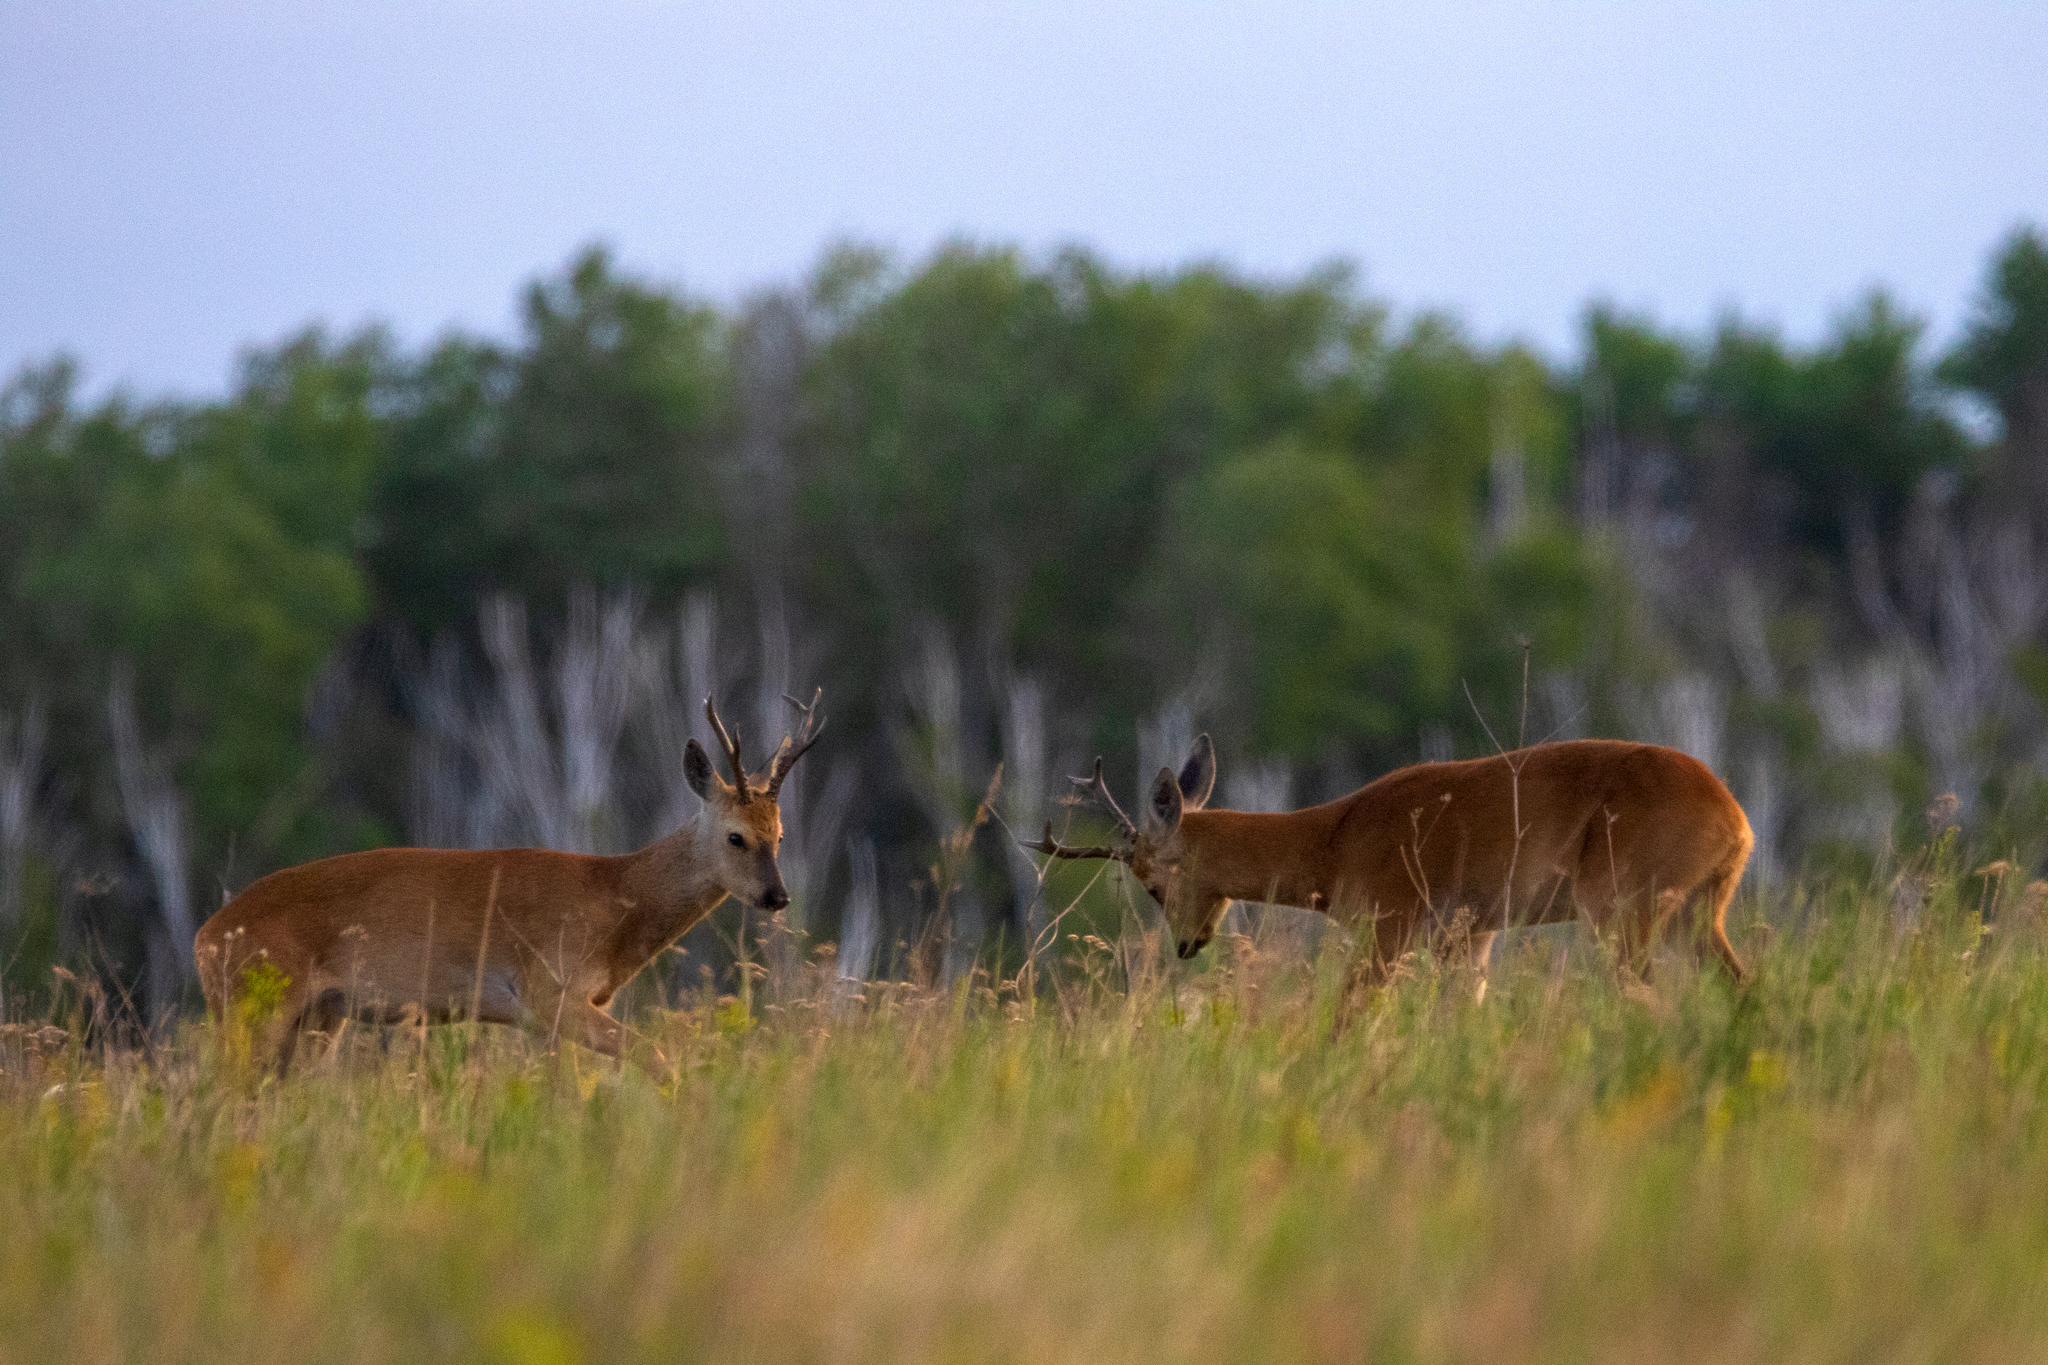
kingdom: Animalia
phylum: Chordata
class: Mammalia
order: Artiodactyla
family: Cervidae
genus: Capreolus
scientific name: Capreolus pygargus
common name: Siberian roe
